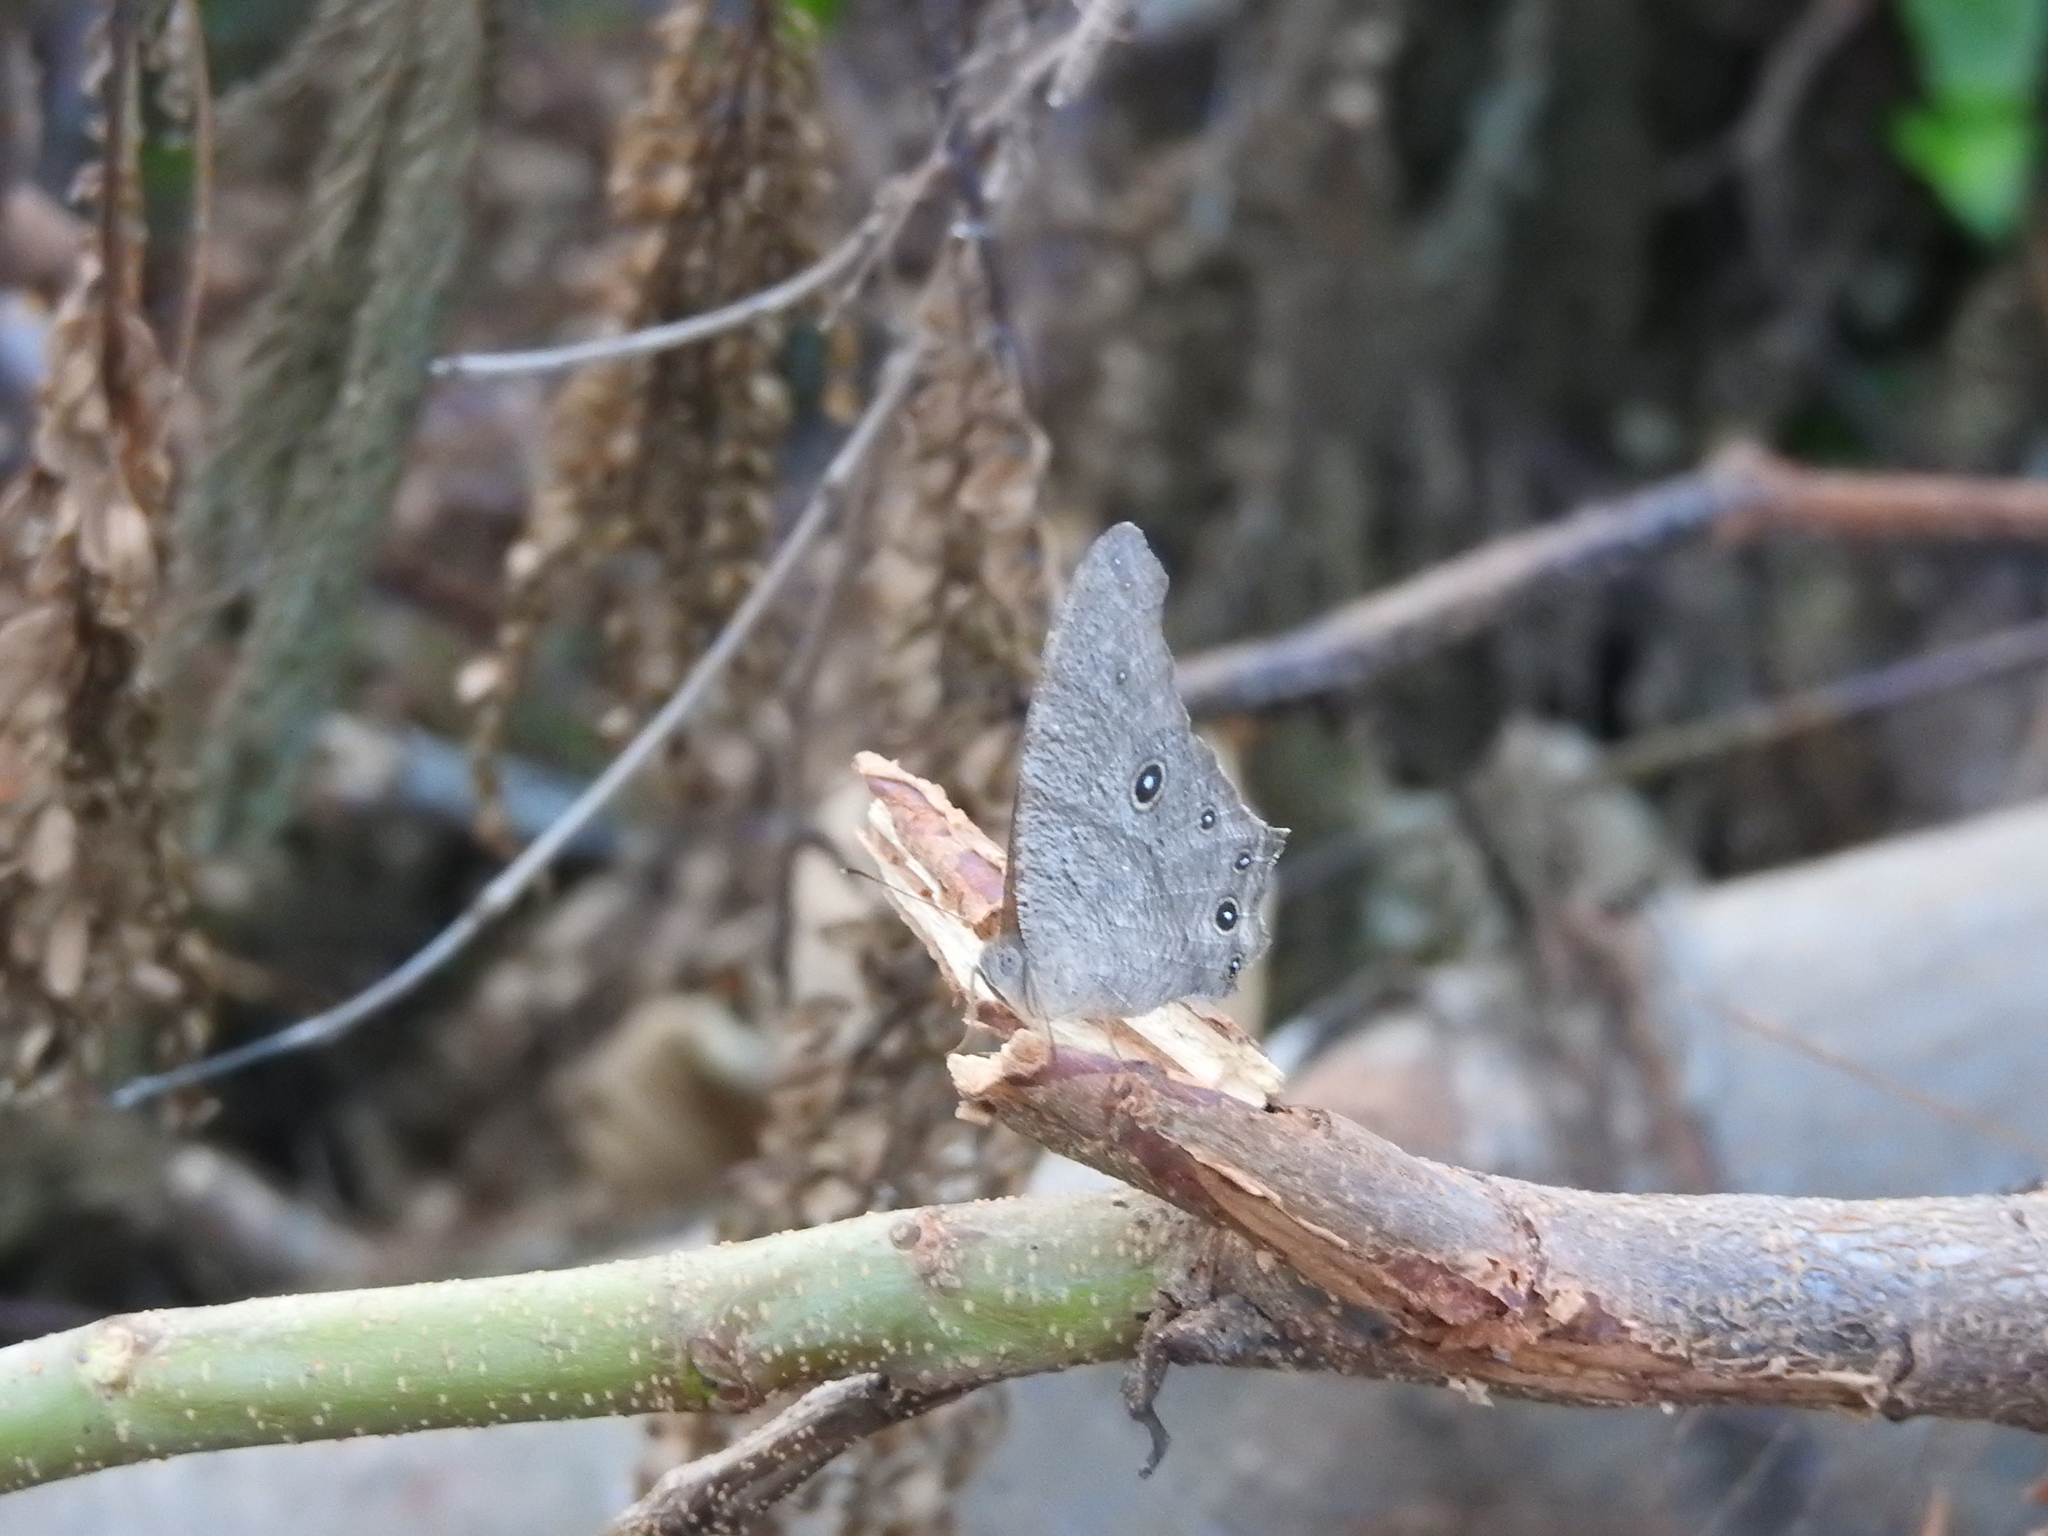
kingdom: Animalia
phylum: Arthropoda
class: Insecta
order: Lepidoptera
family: Nymphalidae
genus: Melanitis
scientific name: Melanitis leda
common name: Twilight brown
